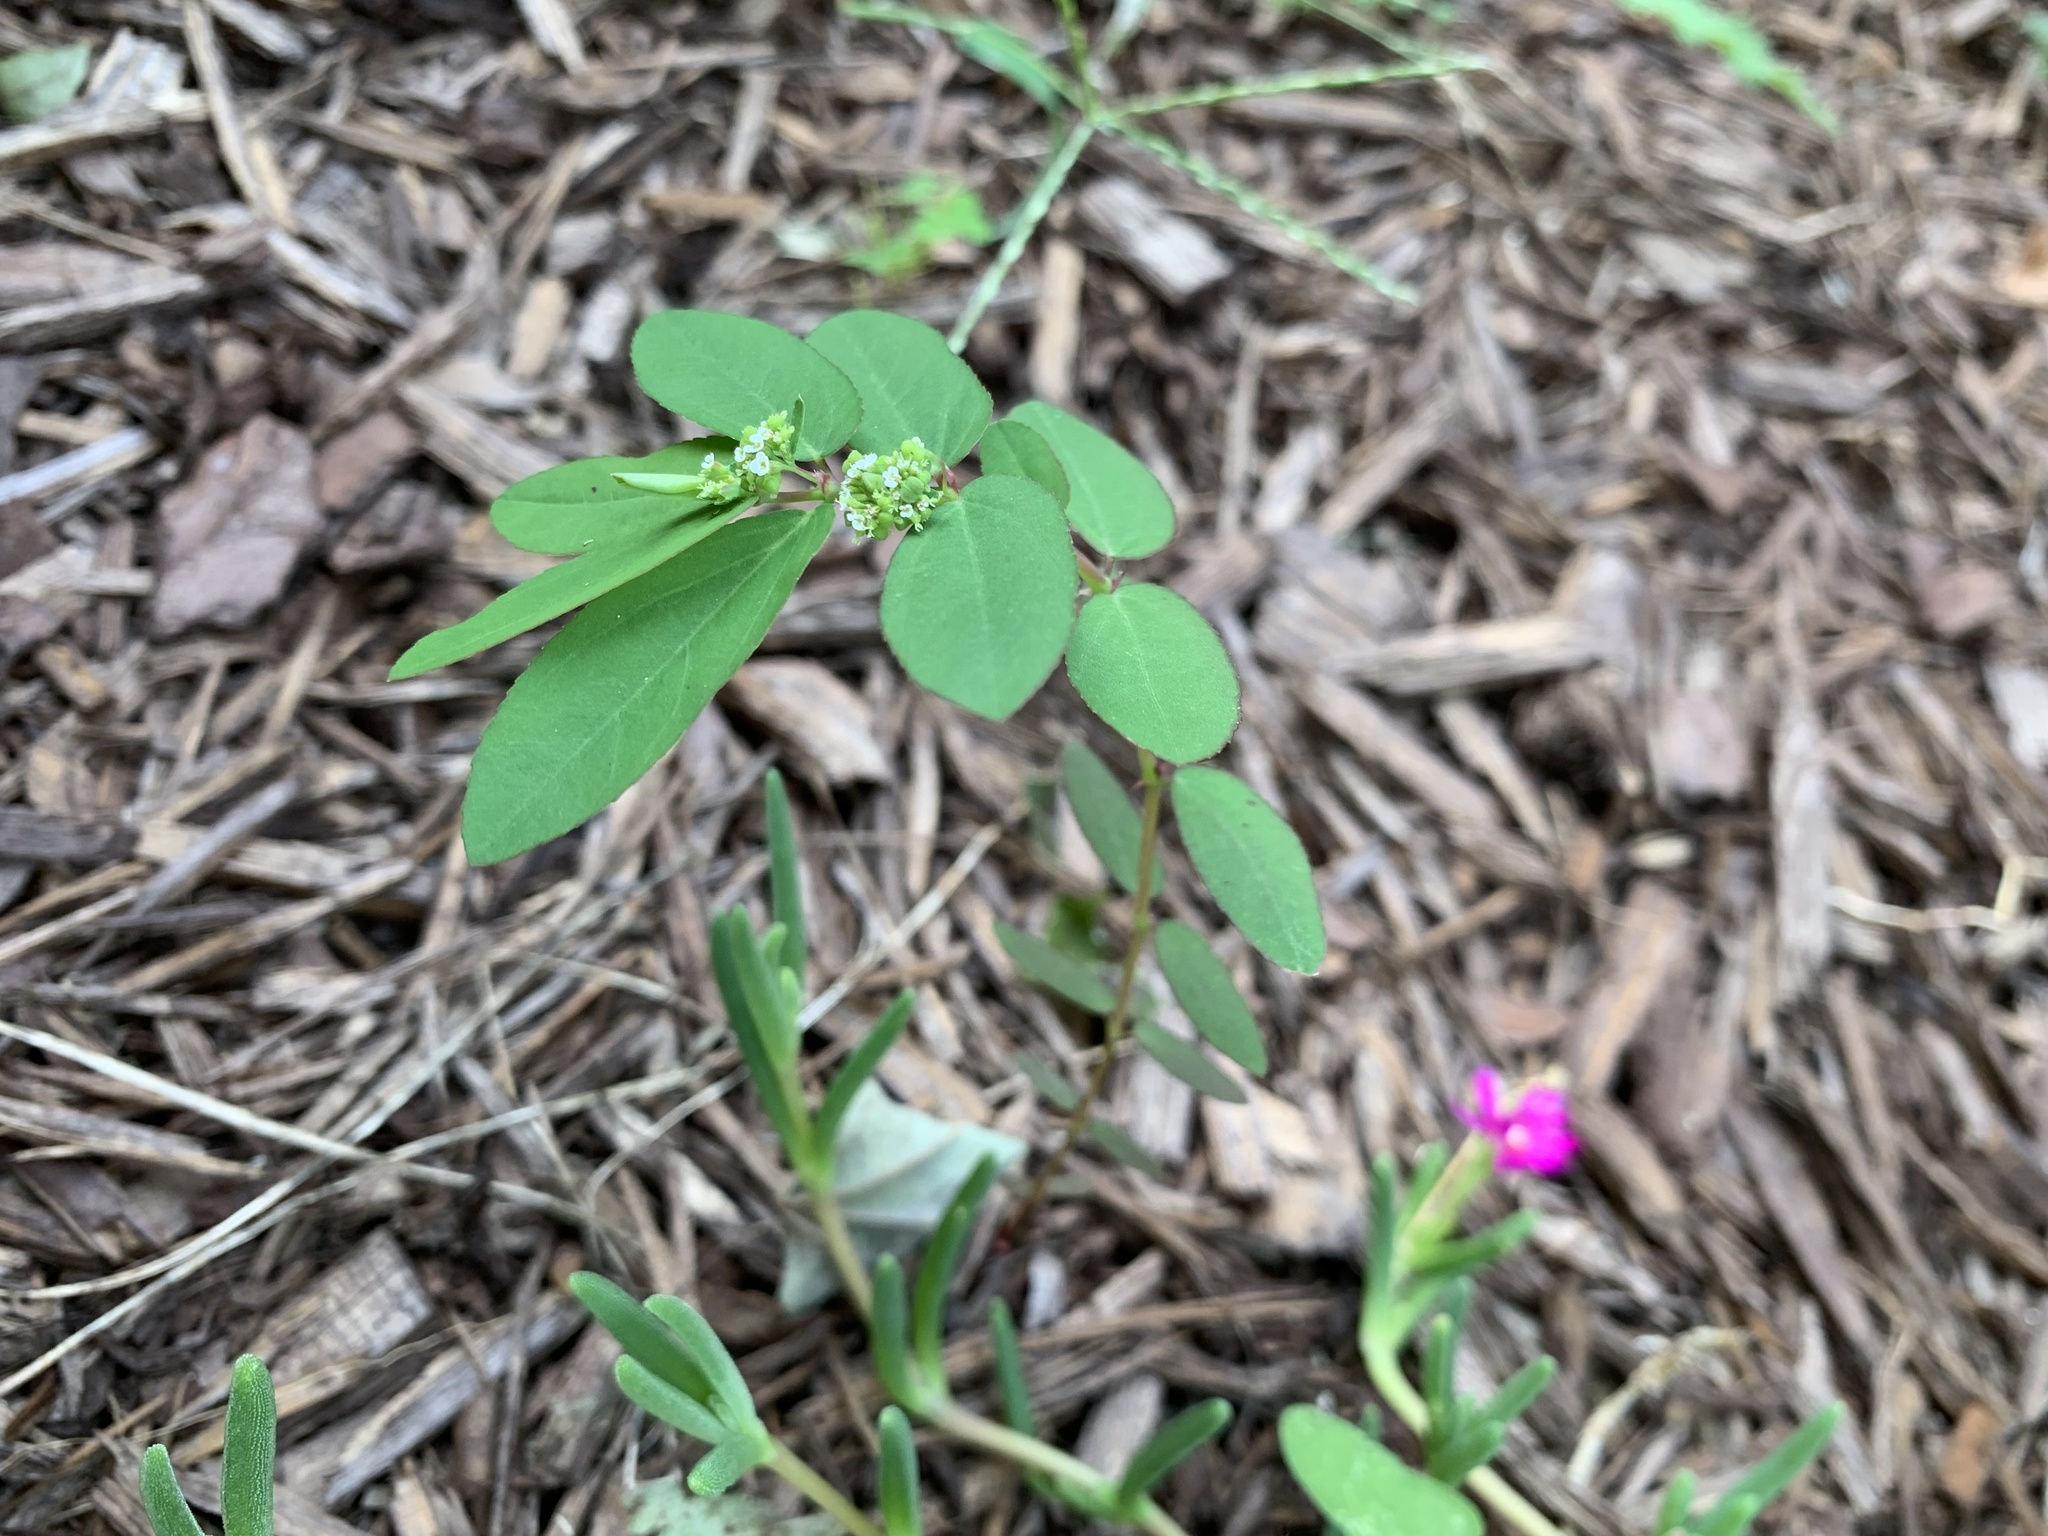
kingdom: Plantae
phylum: Tracheophyta
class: Magnoliopsida
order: Malpighiales
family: Euphorbiaceae
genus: Euphorbia
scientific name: Euphorbia hypericifolia
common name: Graceful sandmat
